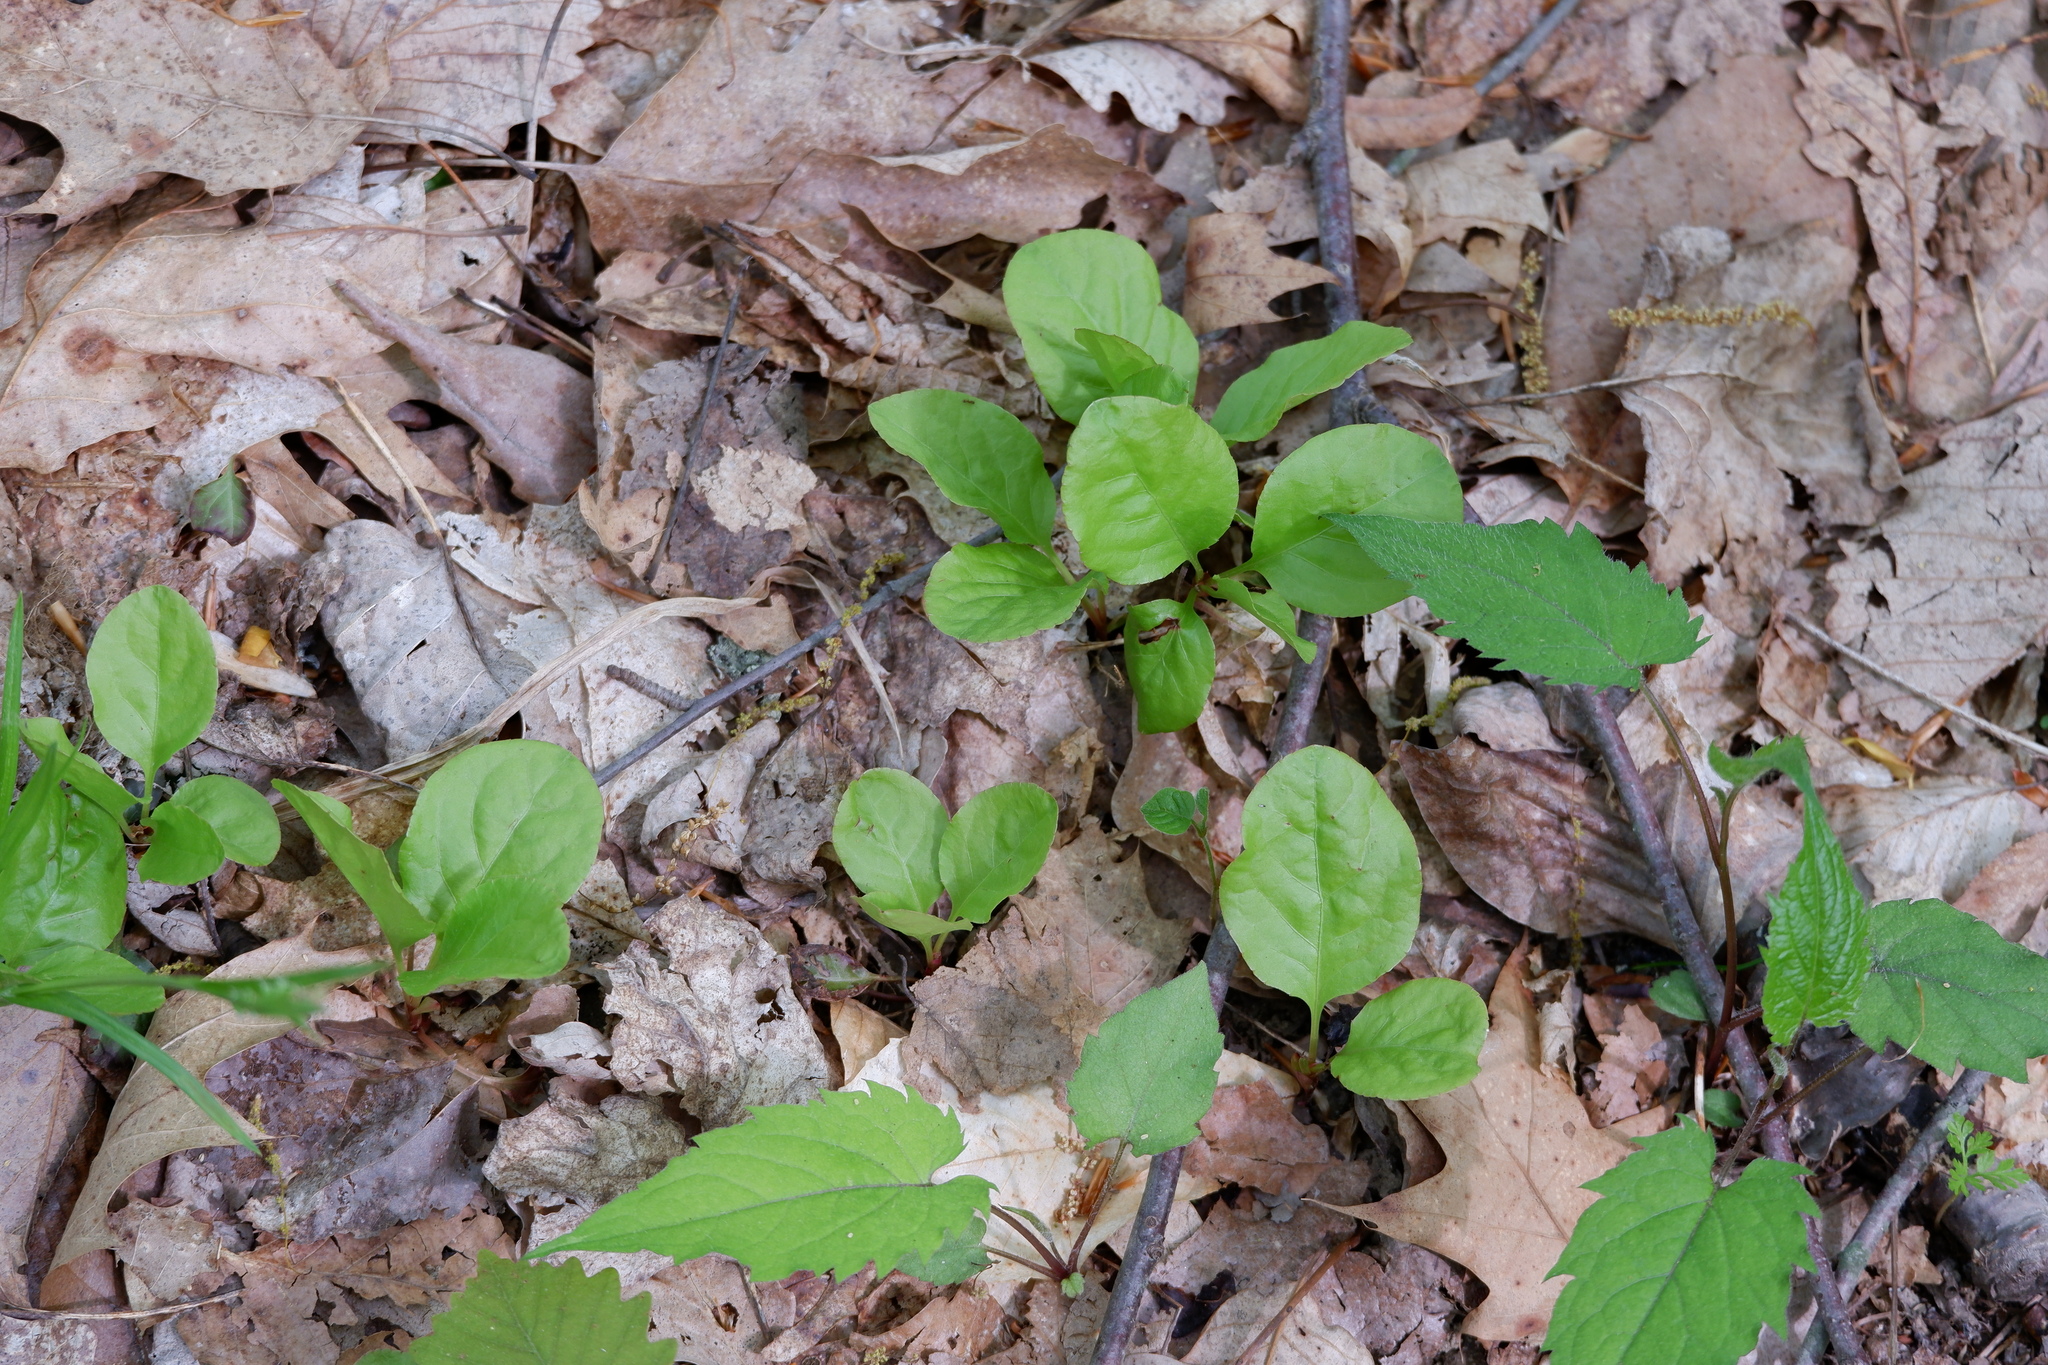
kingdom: Plantae
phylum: Tracheophyta
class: Magnoliopsida
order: Ericales
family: Ericaceae
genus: Pyrola
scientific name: Pyrola elliptica
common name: Shinleaf
